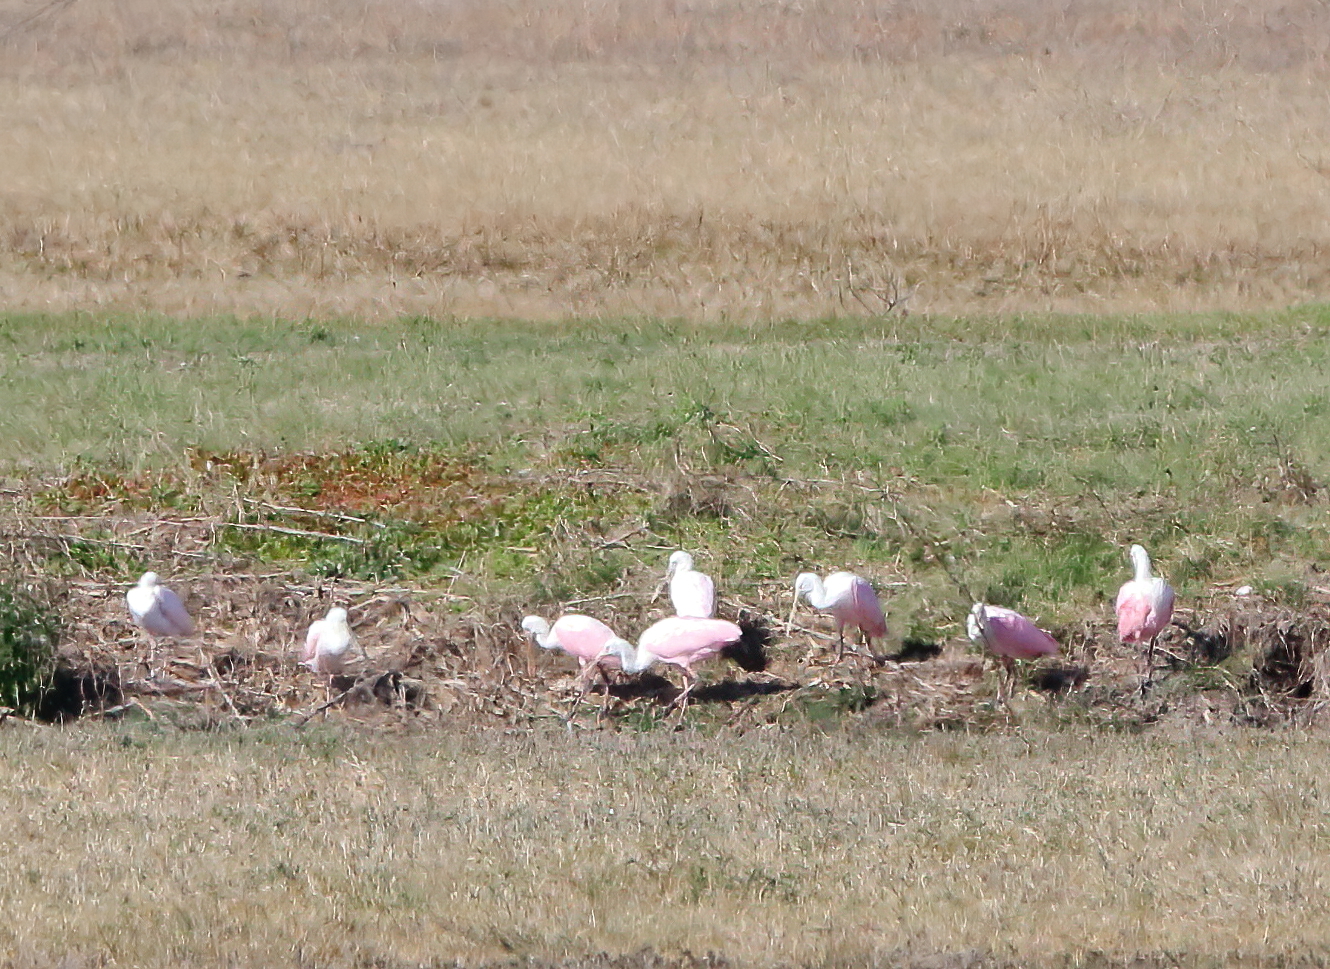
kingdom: Animalia
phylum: Chordata
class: Aves
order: Pelecaniformes
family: Threskiornithidae
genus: Platalea
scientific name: Platalea ajaja
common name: Roseate spoonbill
